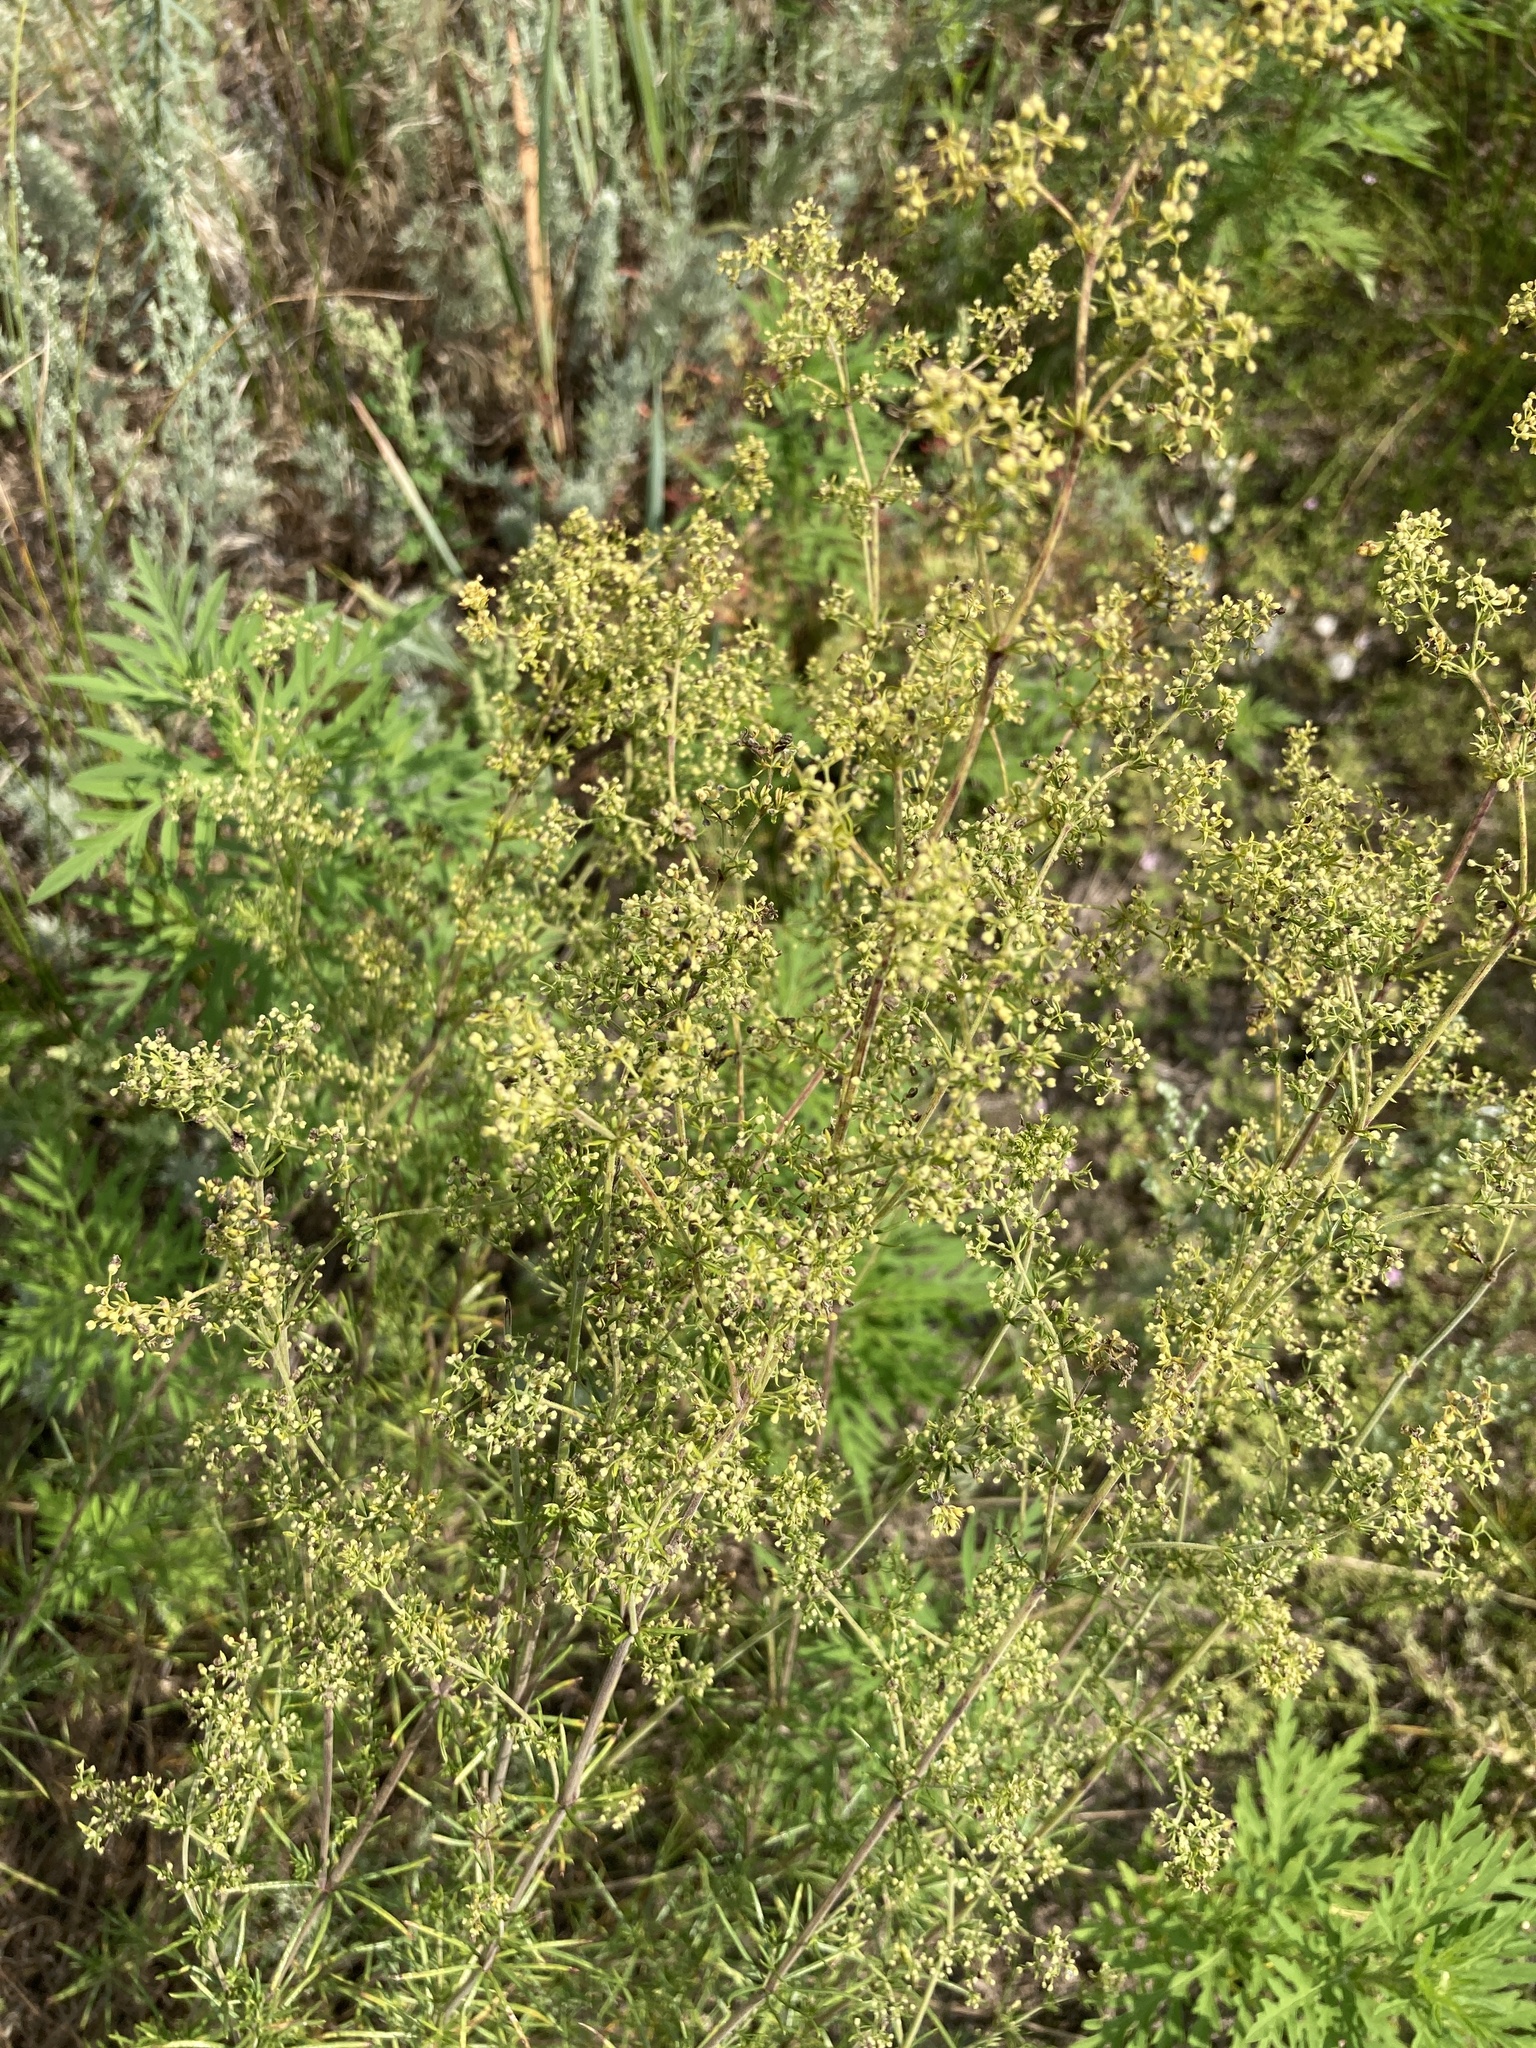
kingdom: Plantae
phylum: Tracheophyta
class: Magnoliopsida
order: Gentianales
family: Rubiaceae
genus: Galium
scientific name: Galium verum
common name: Lady's bedstraw
